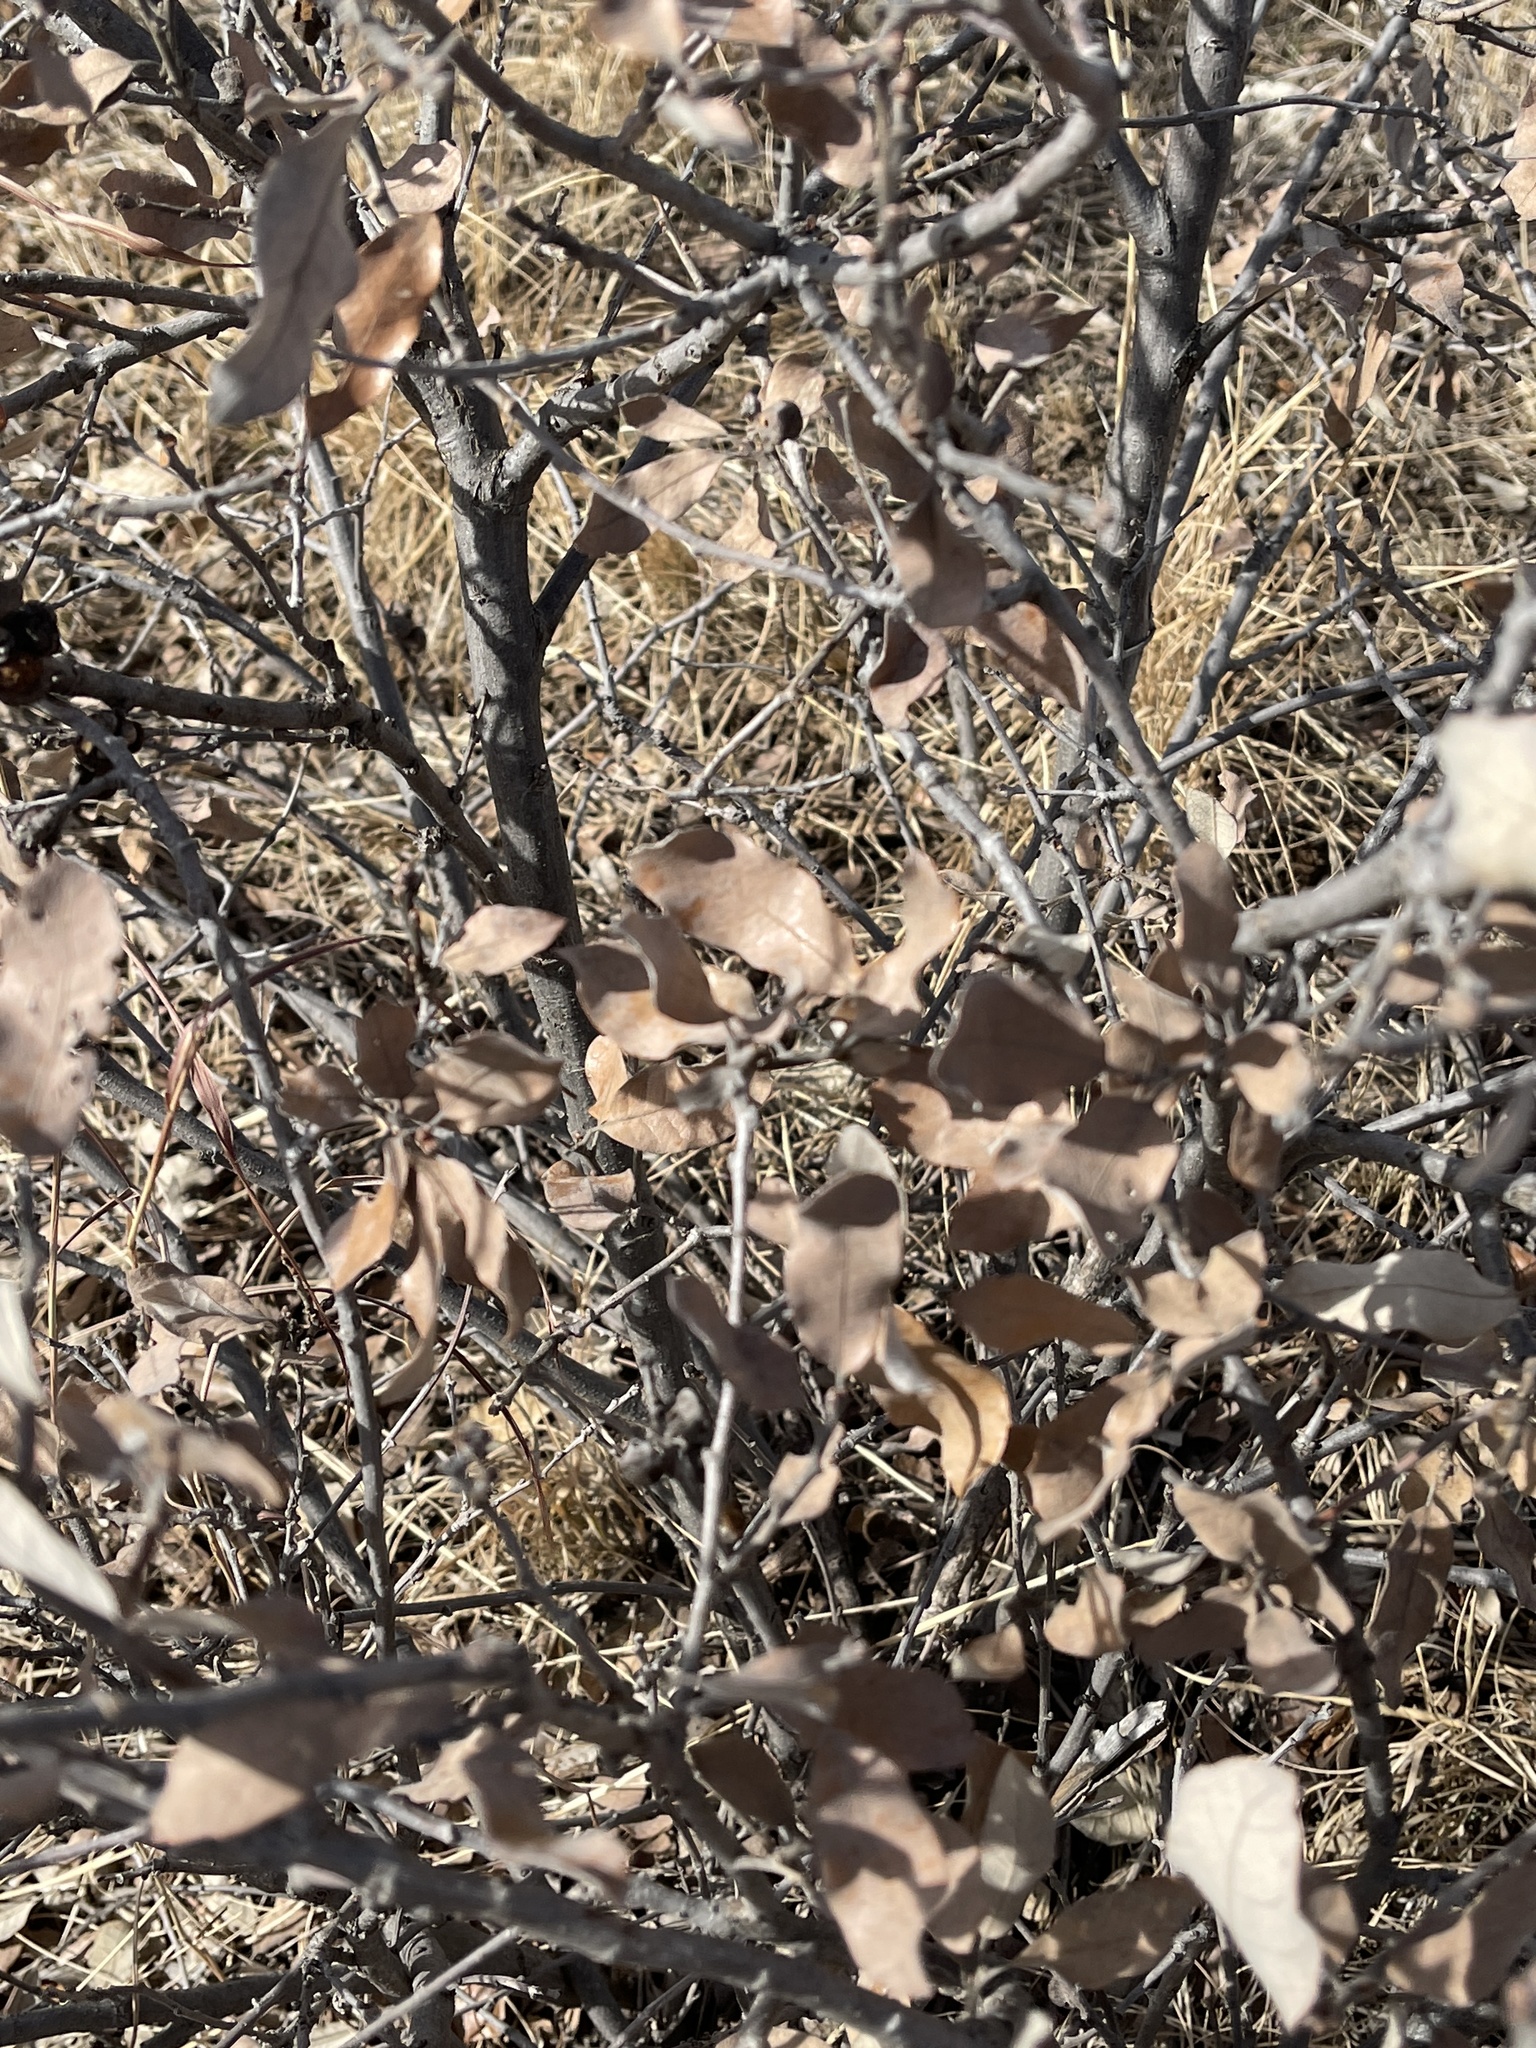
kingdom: Plantae
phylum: Tracheophyta
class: Magnoliopsida
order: Fagales
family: Fagaceae
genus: Quercus
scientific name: Quercus mohriana
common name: Mohr oak
